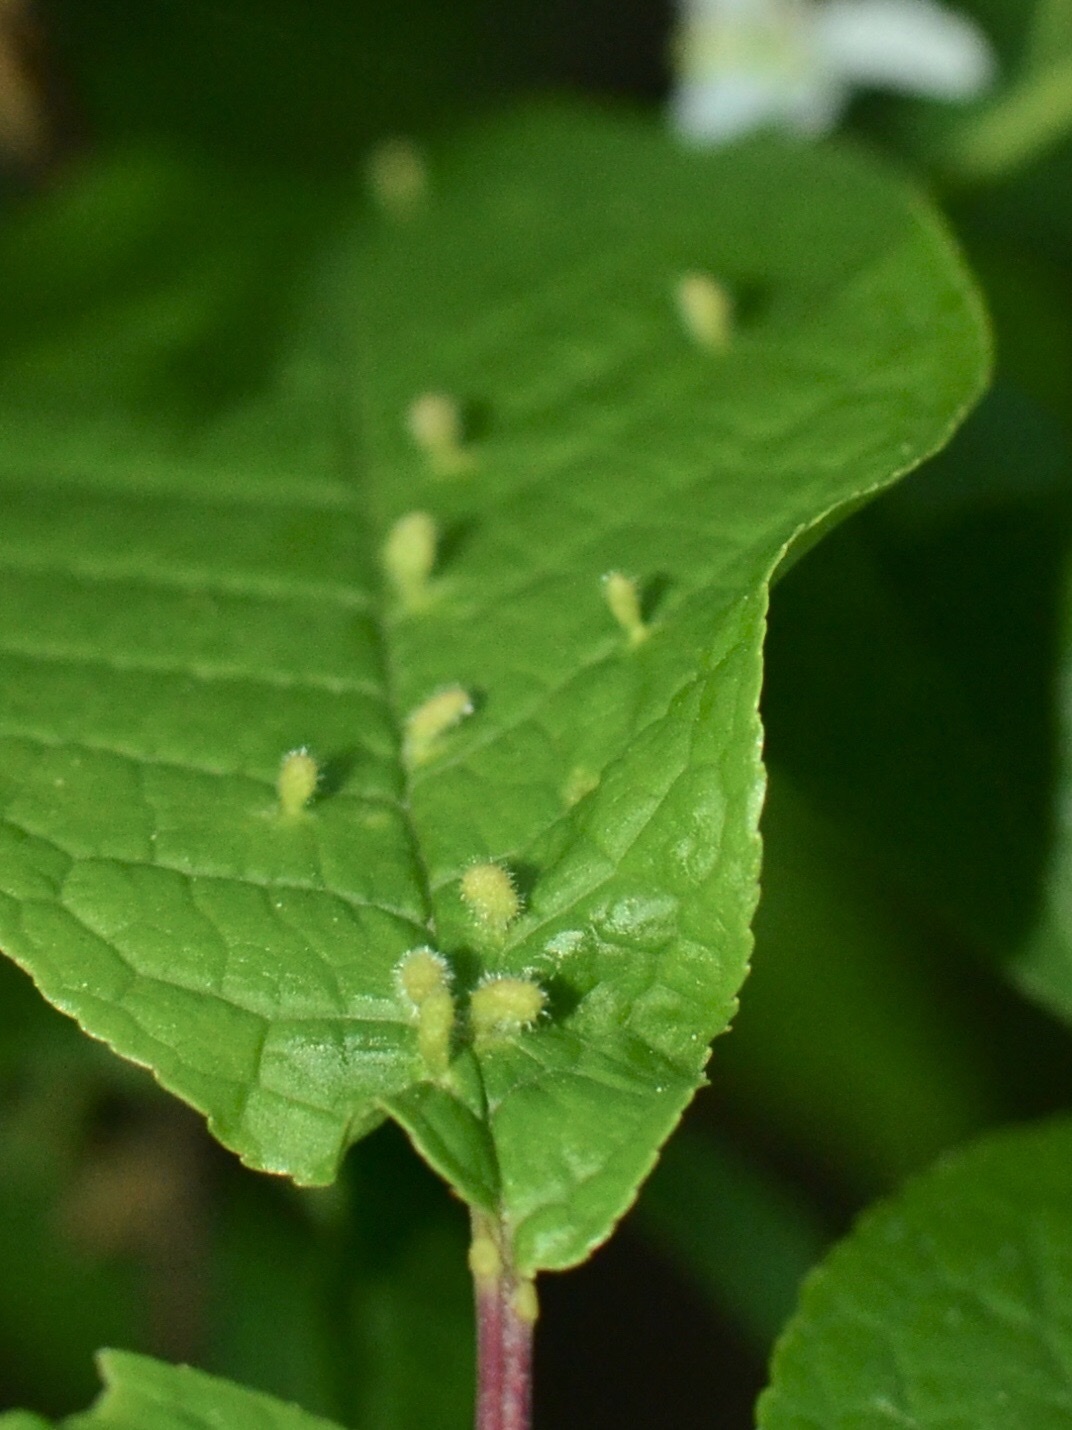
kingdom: Animalia
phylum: Arthropoda
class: Arachnida
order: Trombidiformes
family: Eriophyidae
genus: Phyllocoptes
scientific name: Phyllocoptes eupadi
